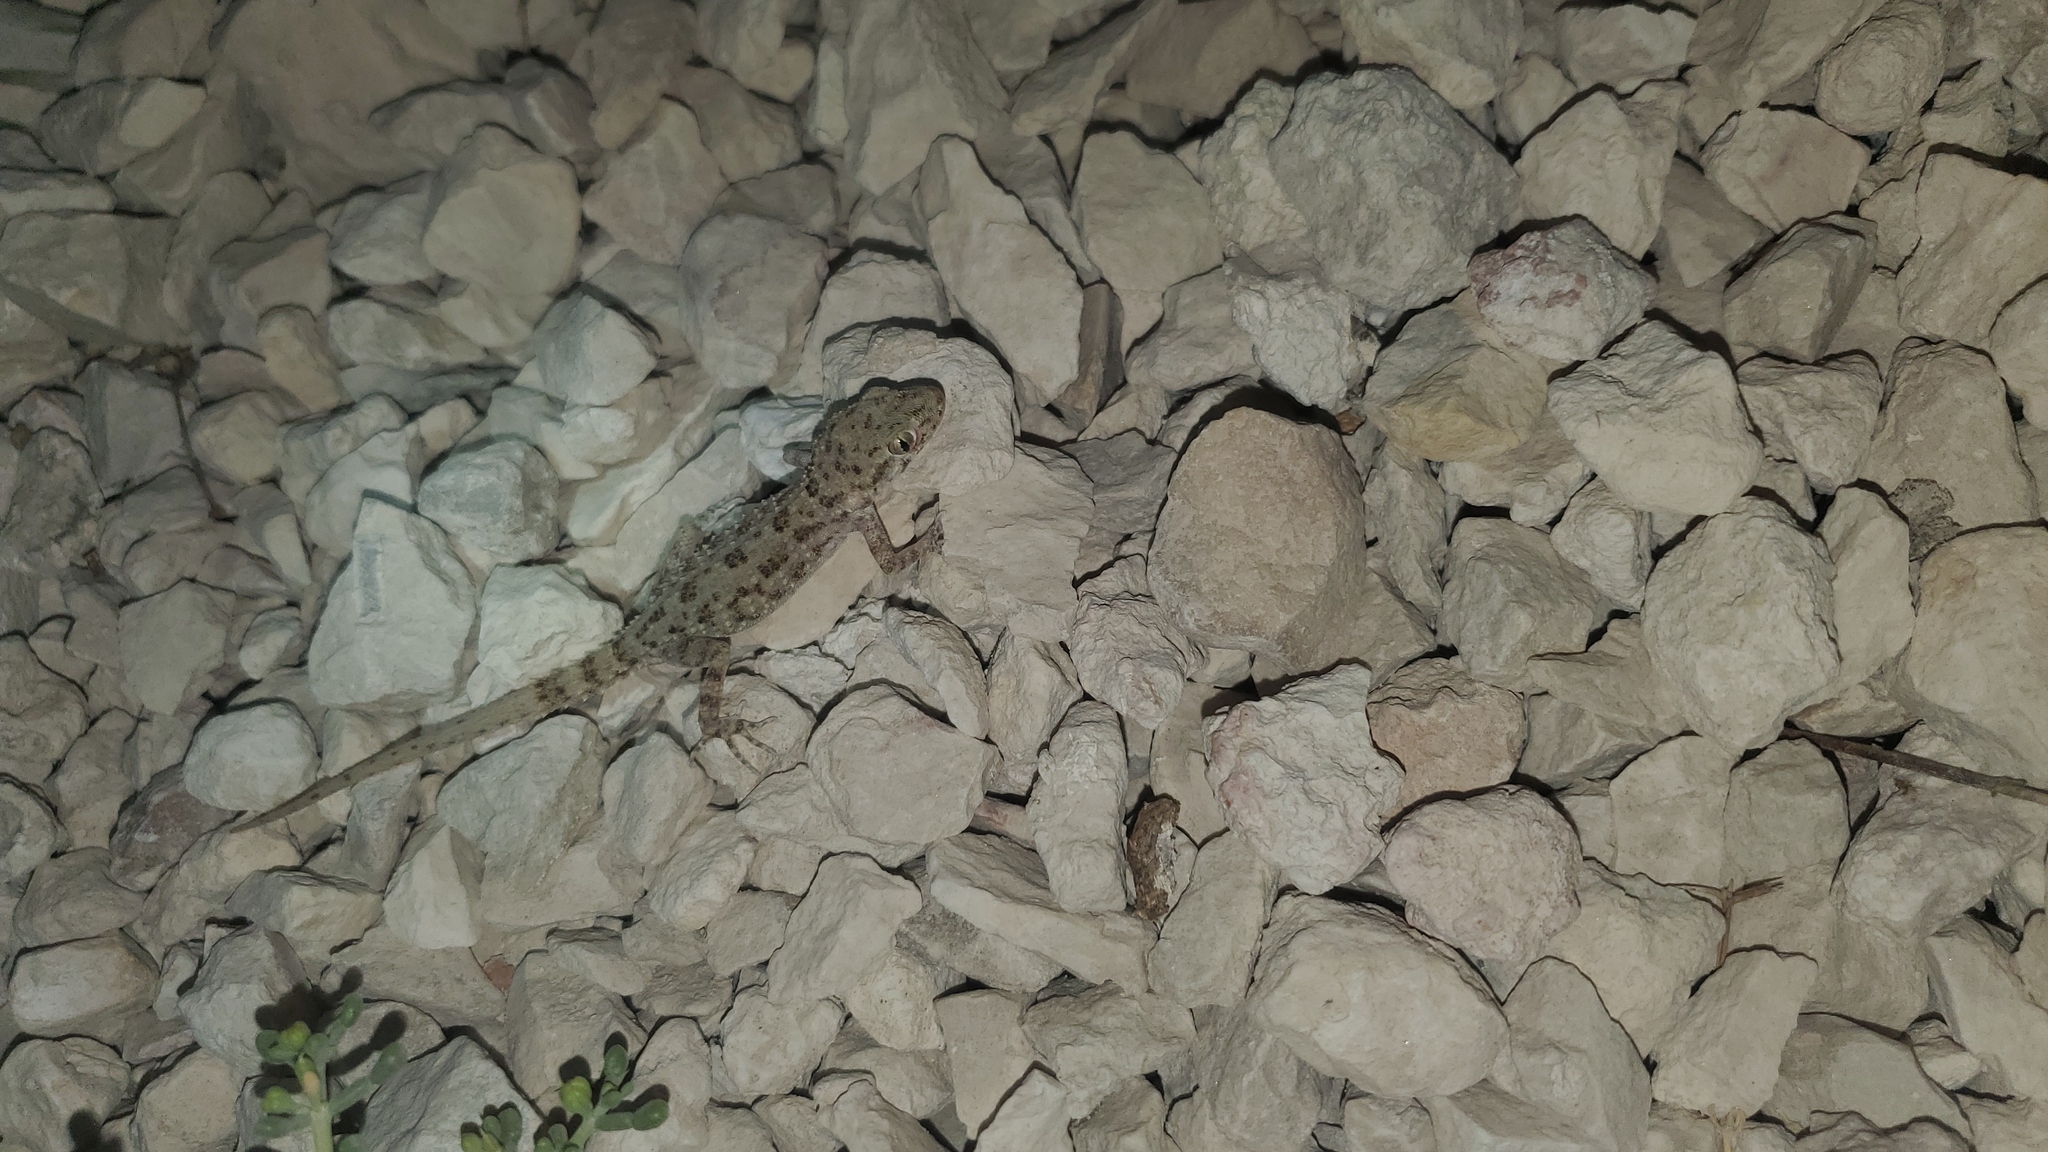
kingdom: Animalia
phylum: Chordata
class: Squamata
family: Gekkonidae
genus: Cyrtopodion
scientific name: Cyrtopodion scabrum
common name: Rough-tailed gecko
